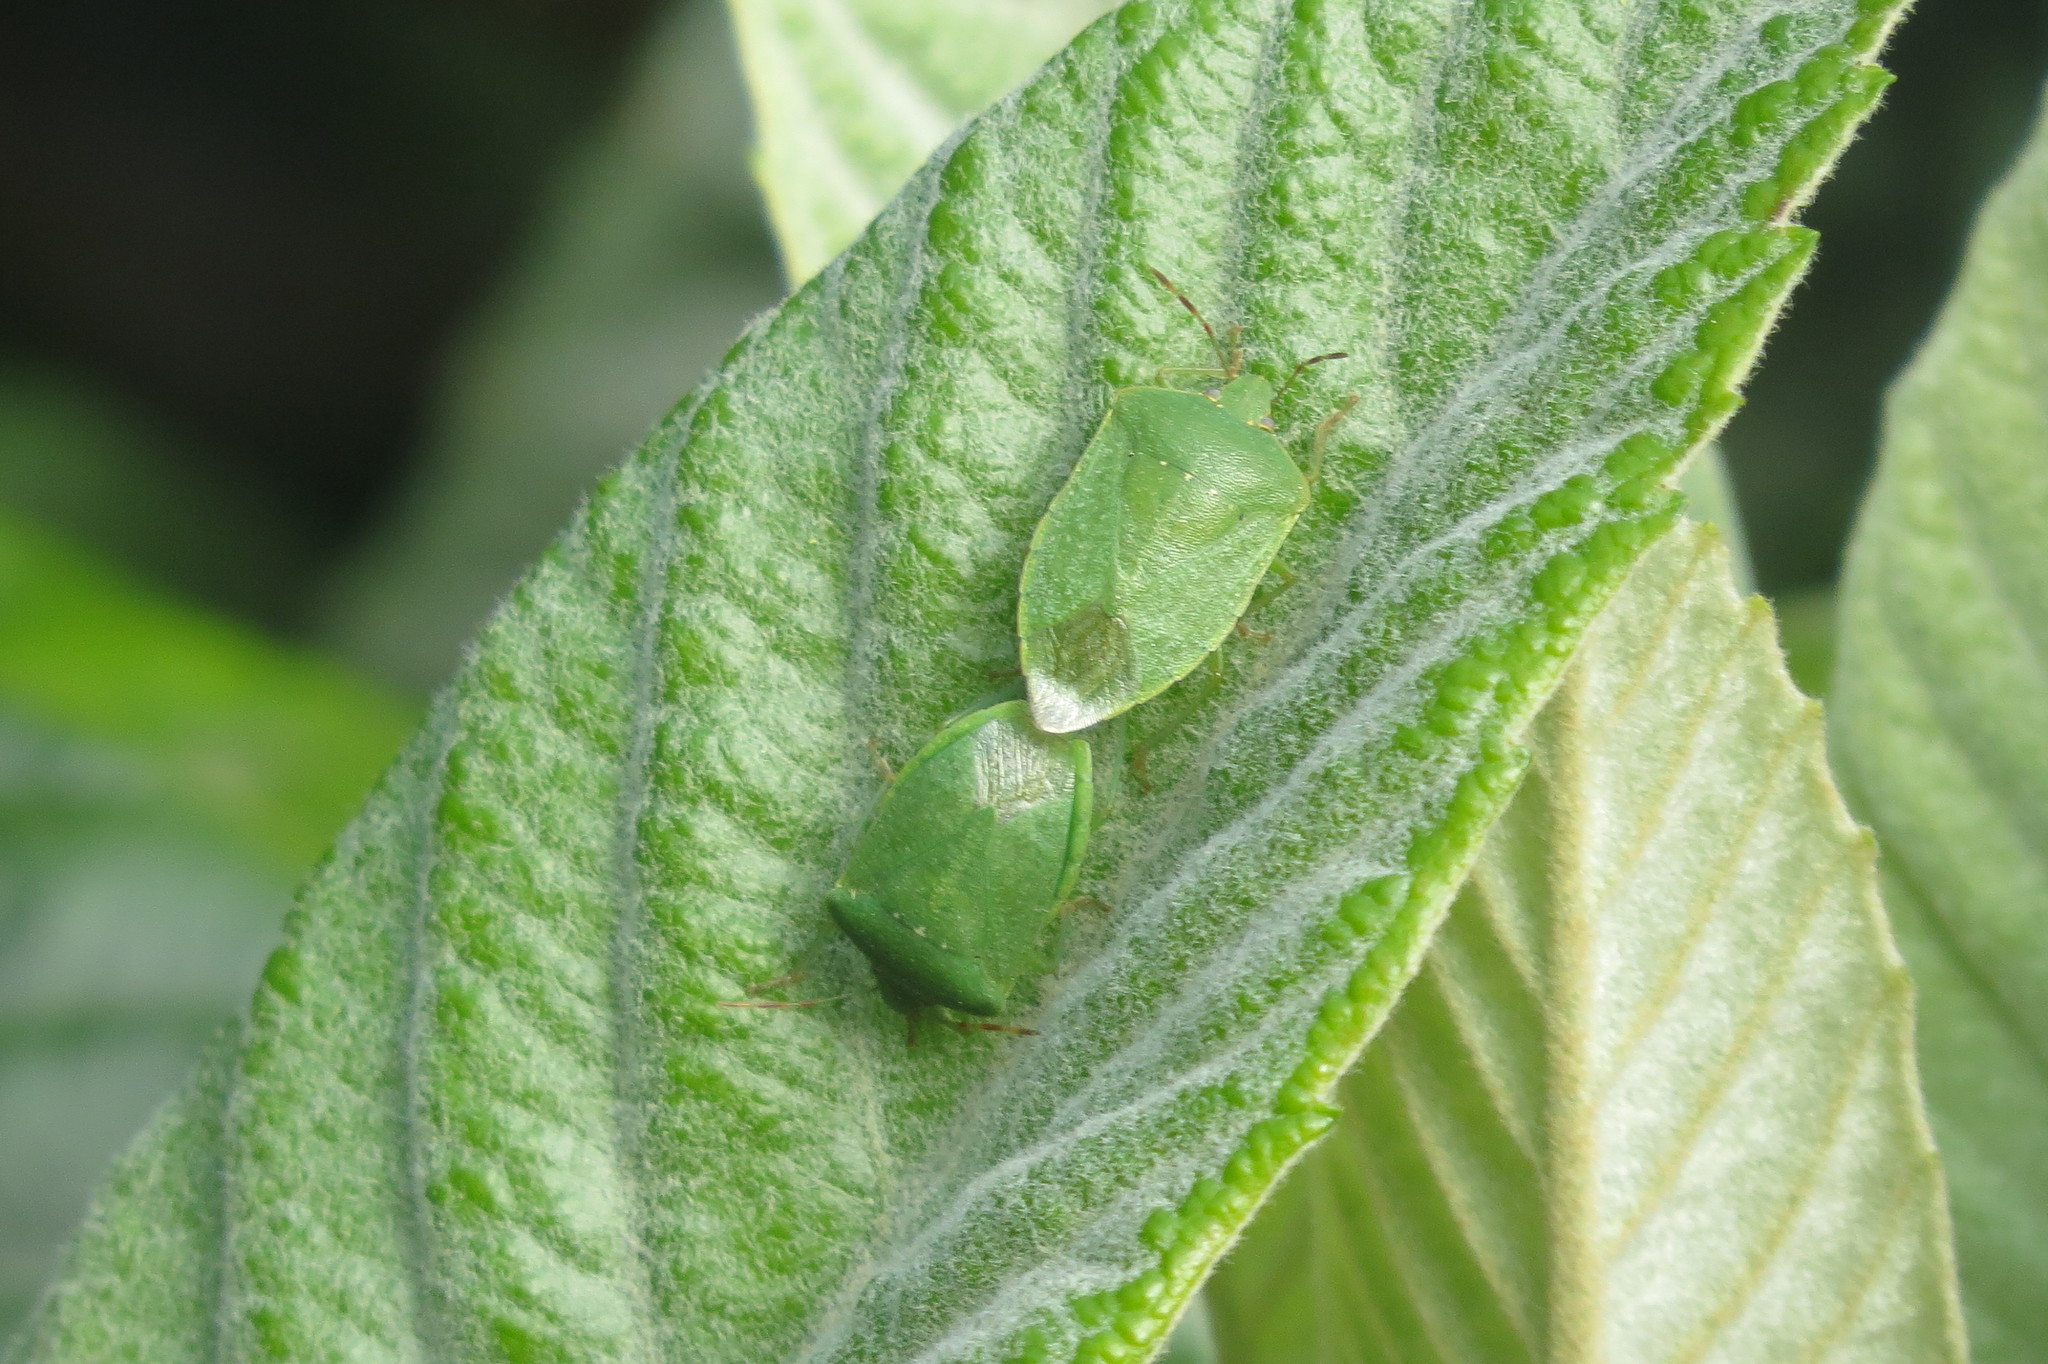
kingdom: Animalia
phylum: Arthropoda
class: Insecta
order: Hemiptera
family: Pentatomidae
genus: Nezara
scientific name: Nezara viridula
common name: Southern green stink bug
